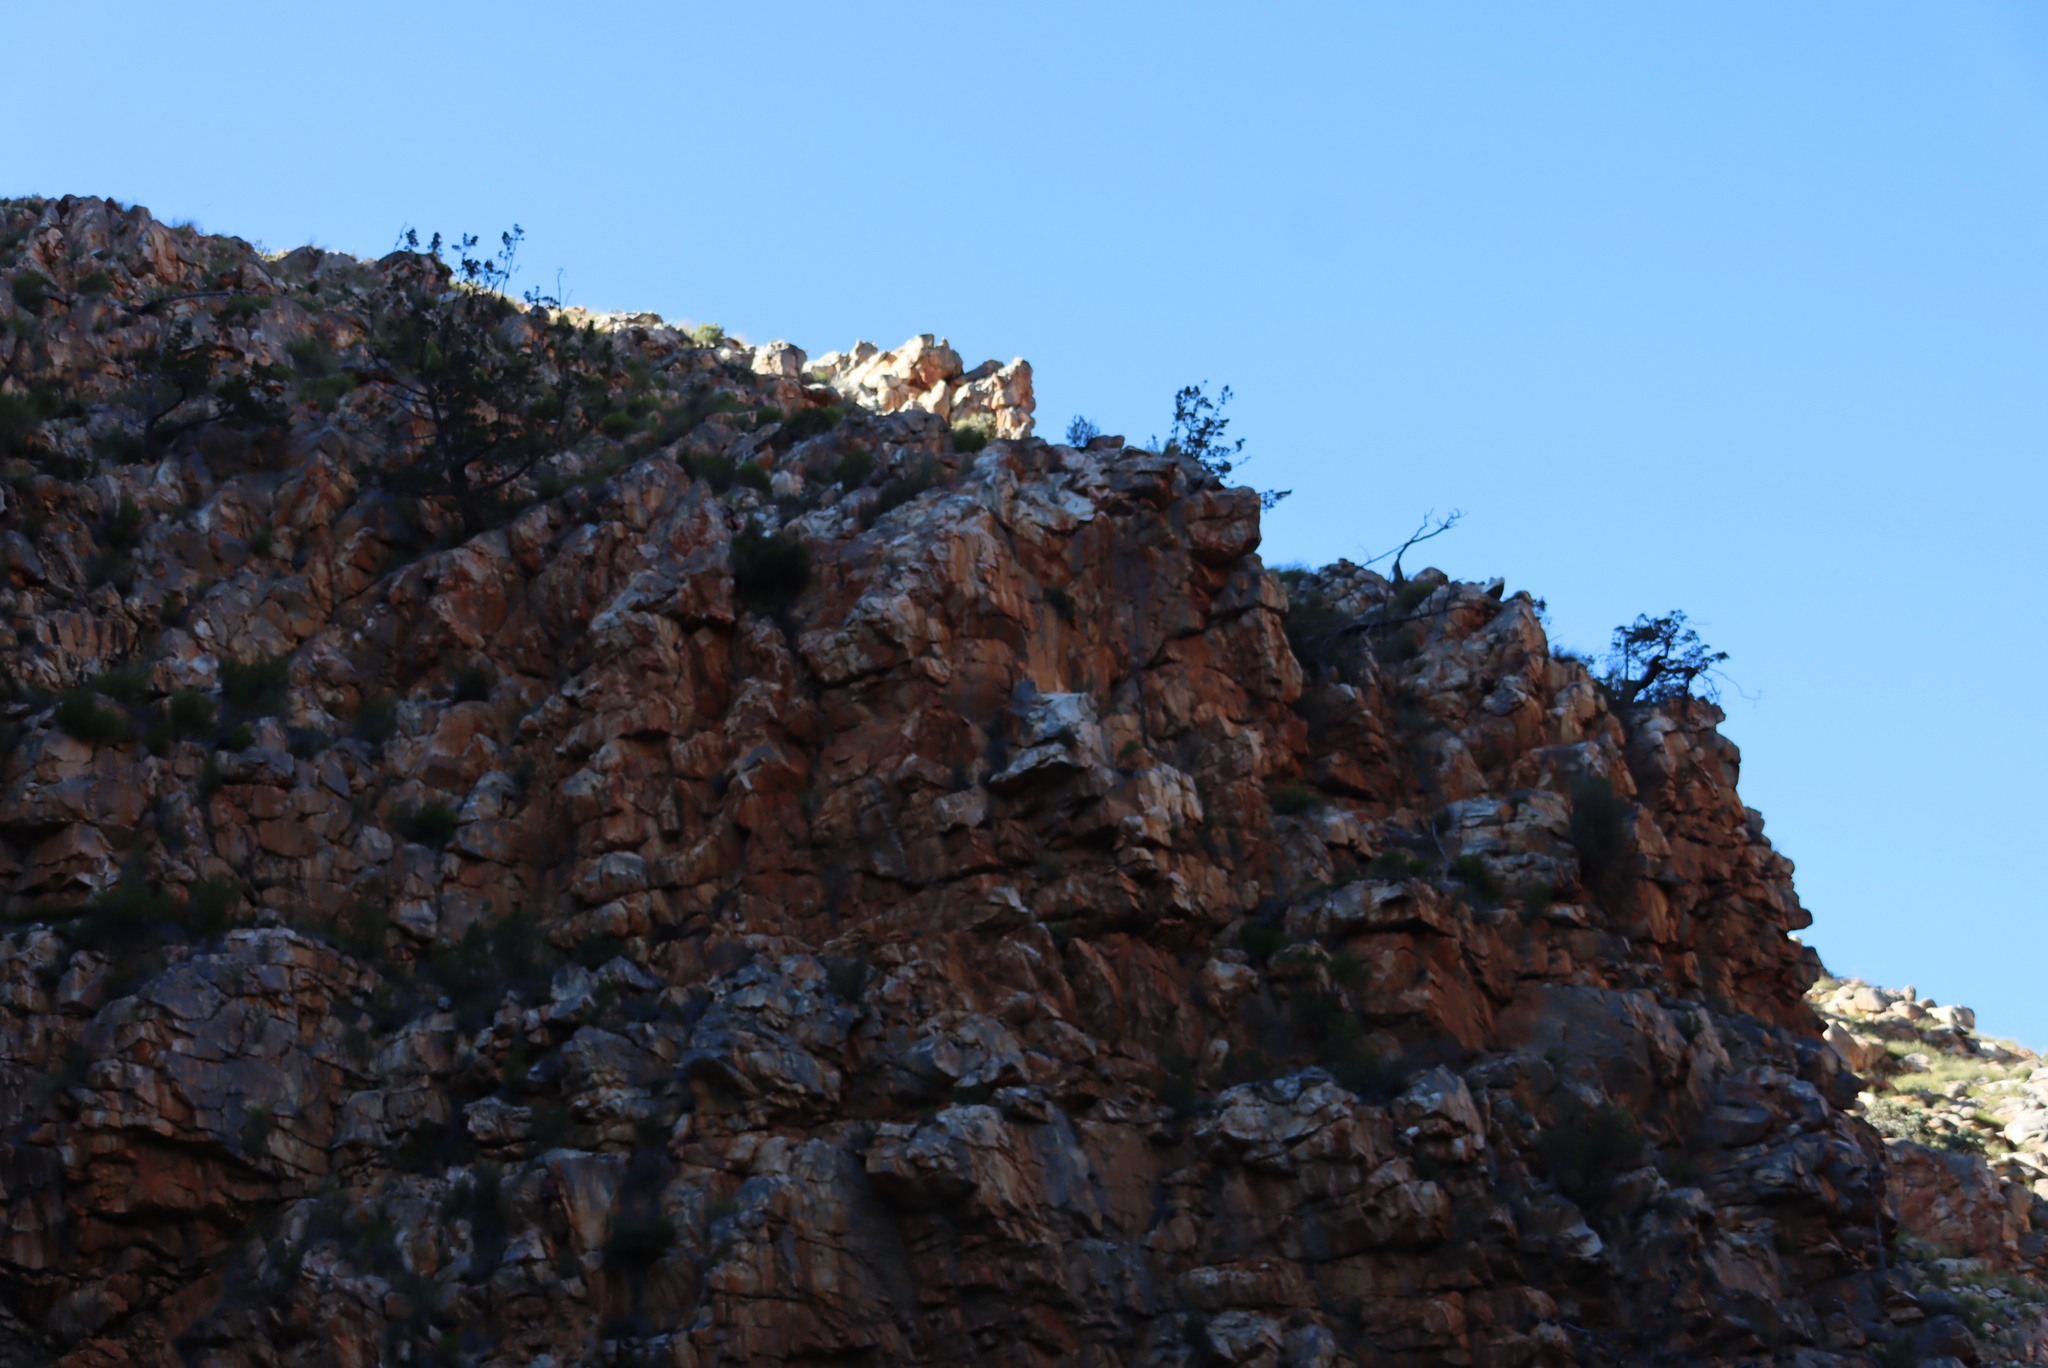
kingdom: Plantae
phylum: Tracheophyta
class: Pinopsida
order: Pinales
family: Cupressaceae
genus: Widdringtonia
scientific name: Widdringtonia schwarzii
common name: Baviaans cedar
